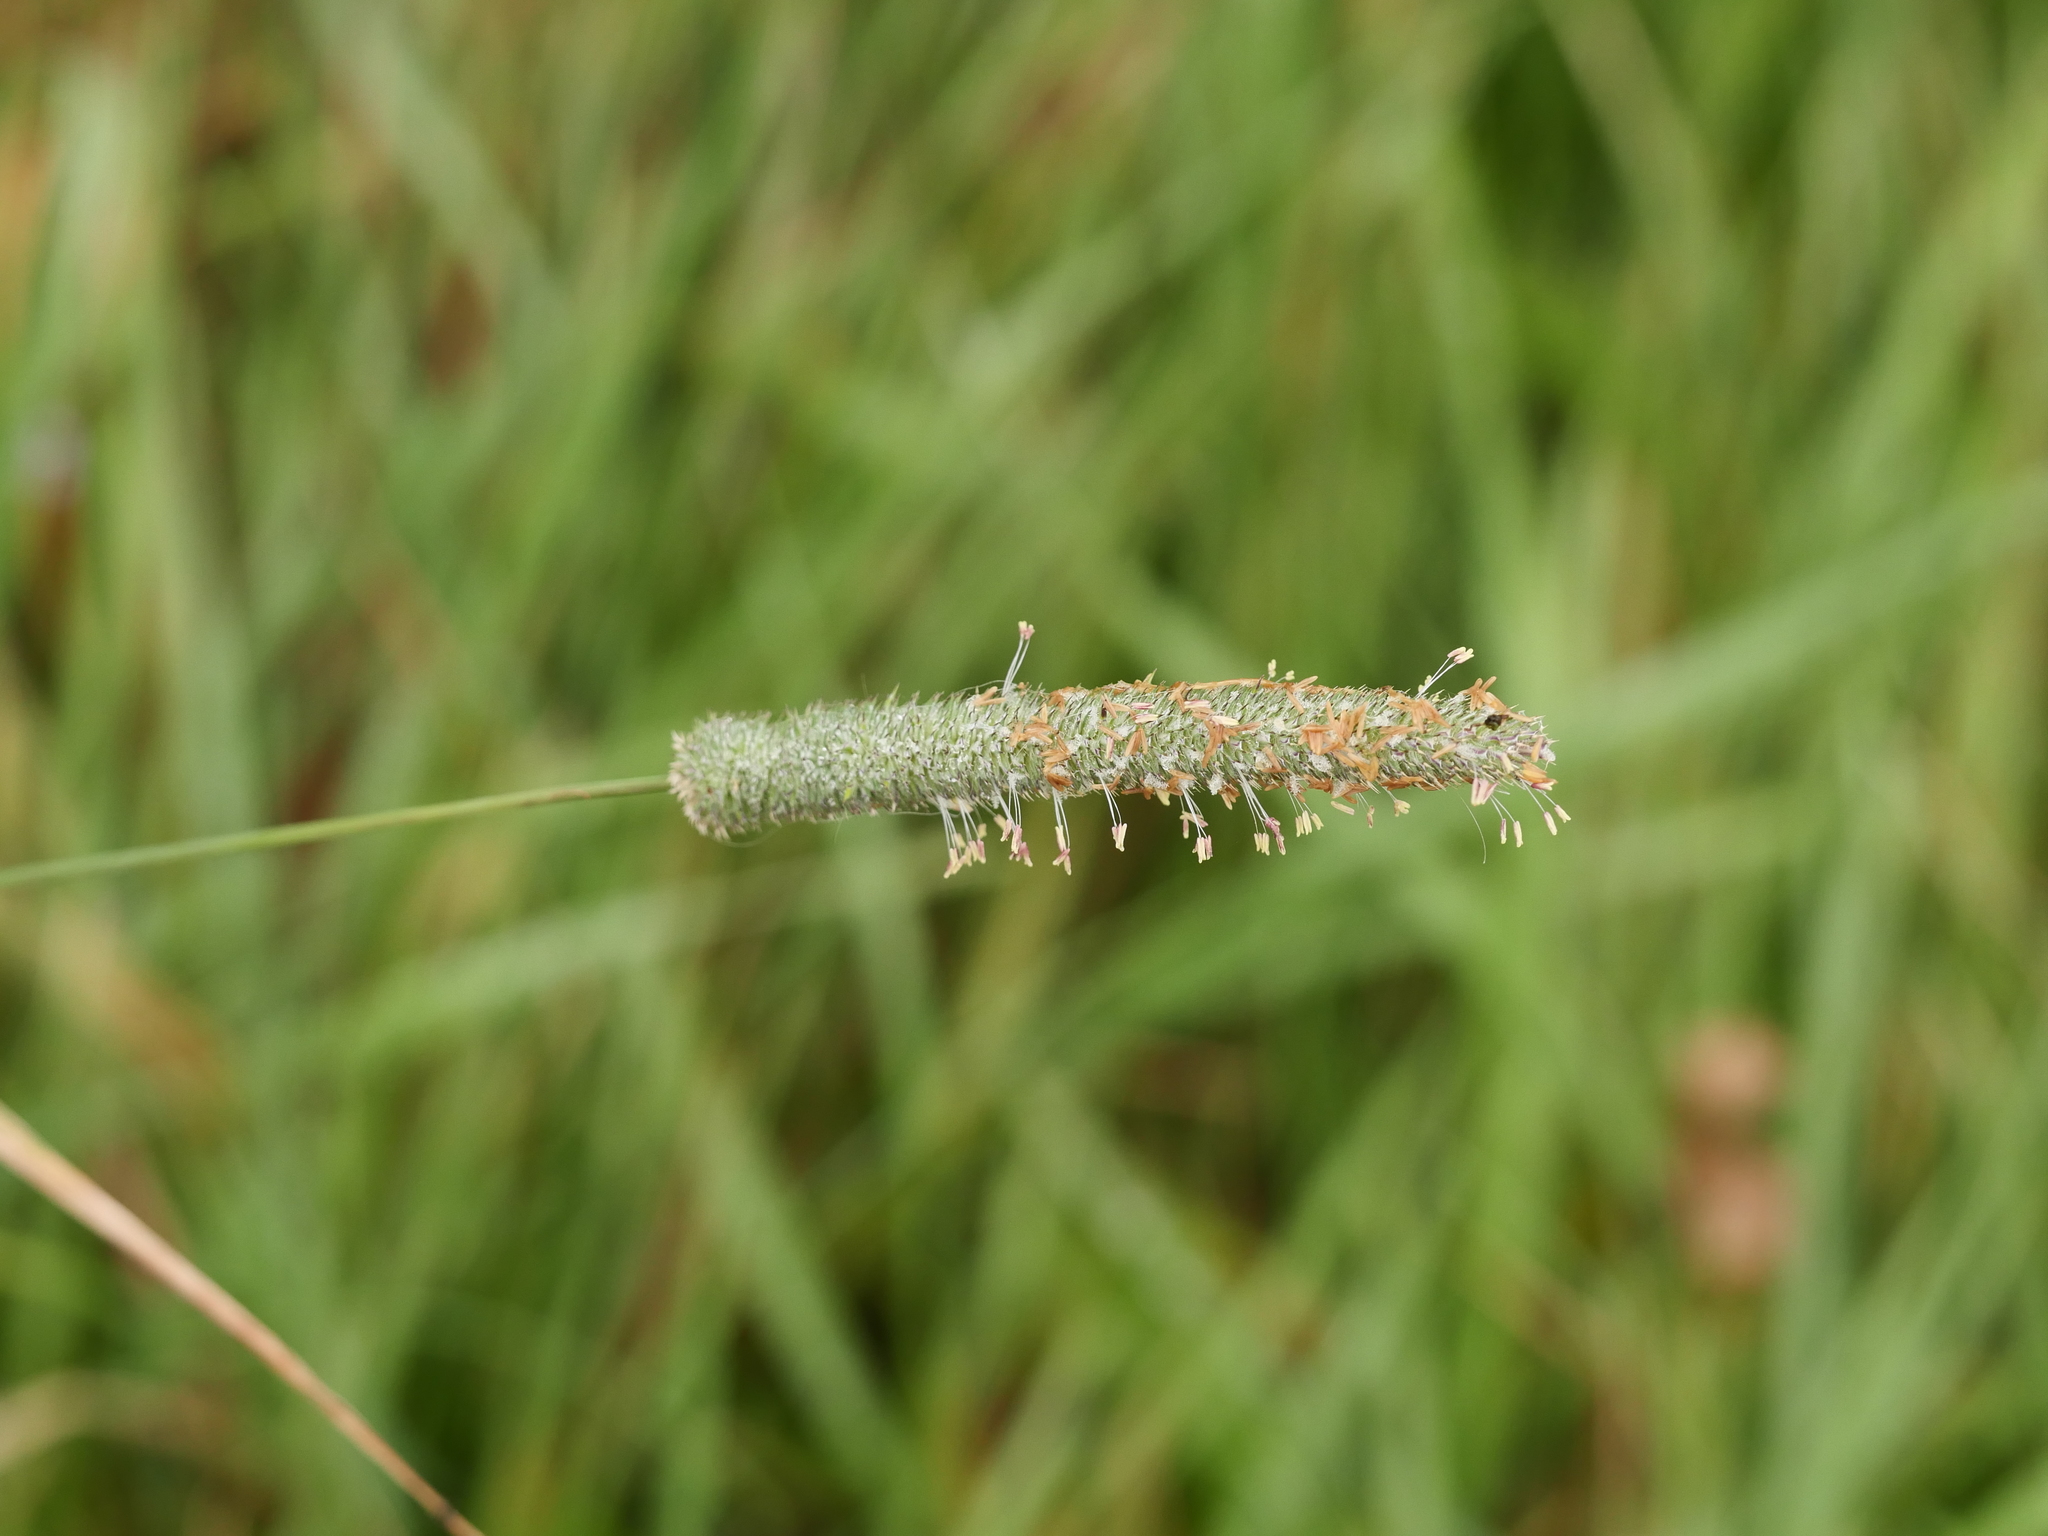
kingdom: Plantae
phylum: Tracheophyta
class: Liliopsida
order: Poales
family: Poaceae
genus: Phleum
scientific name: Phleum pratense
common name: Timothy grass
